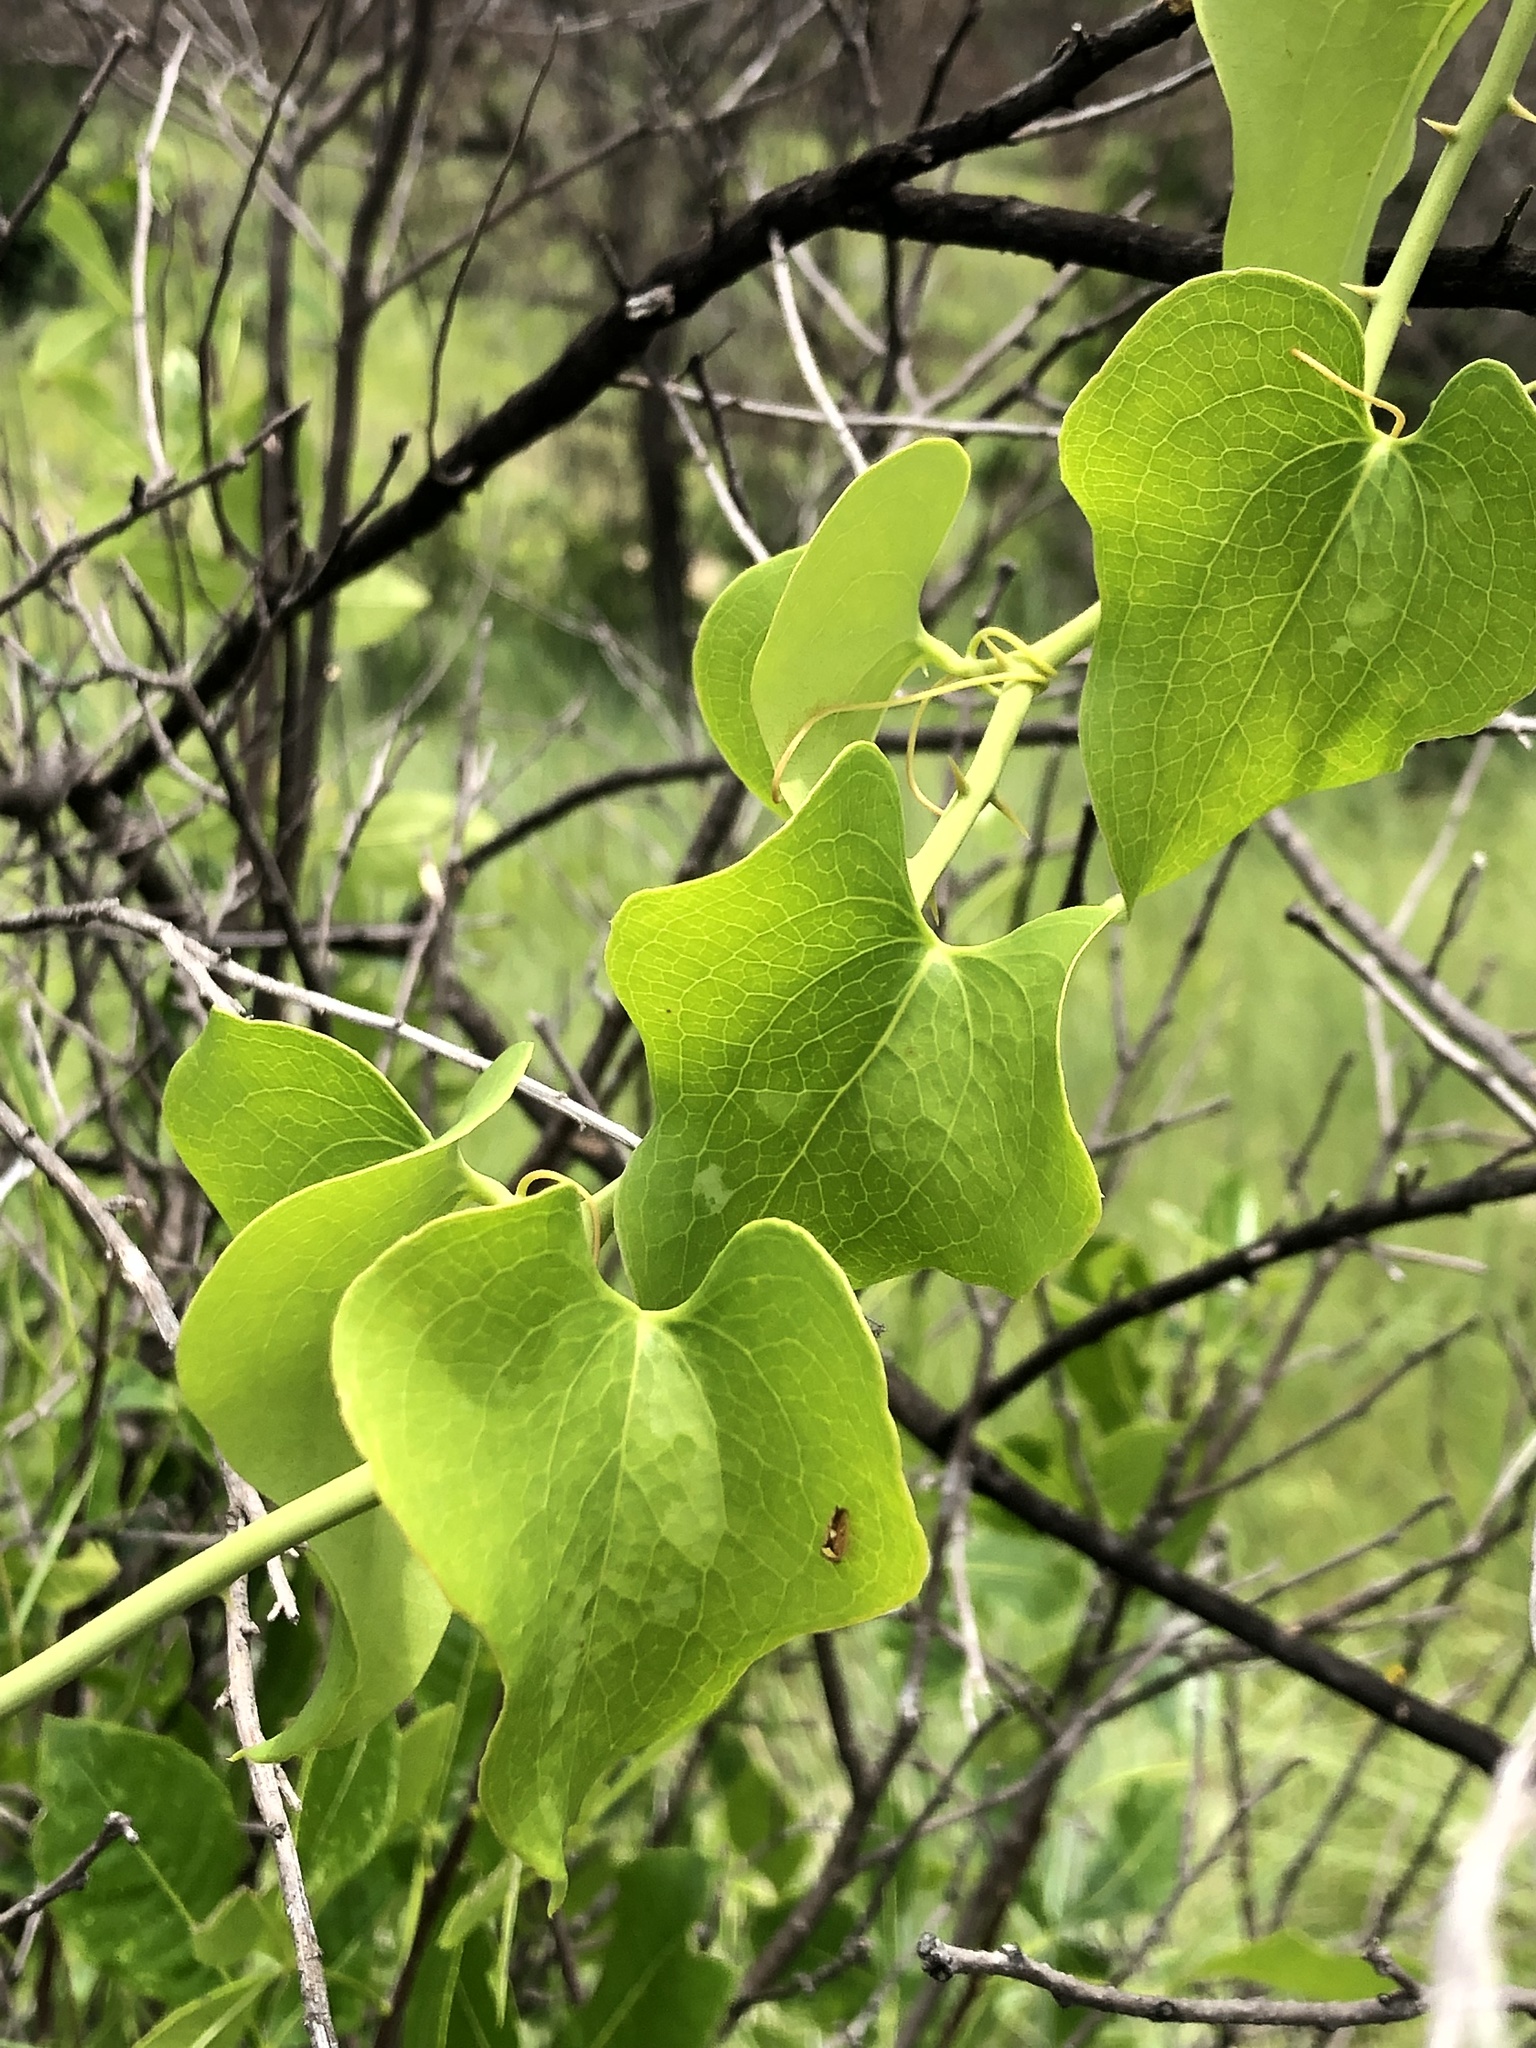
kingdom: Plantae
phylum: Tracheophyta
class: Liliopsida
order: Liliales
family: Smilacaceae
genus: Smilax
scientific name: Smilax bona-nox
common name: Catbrier
